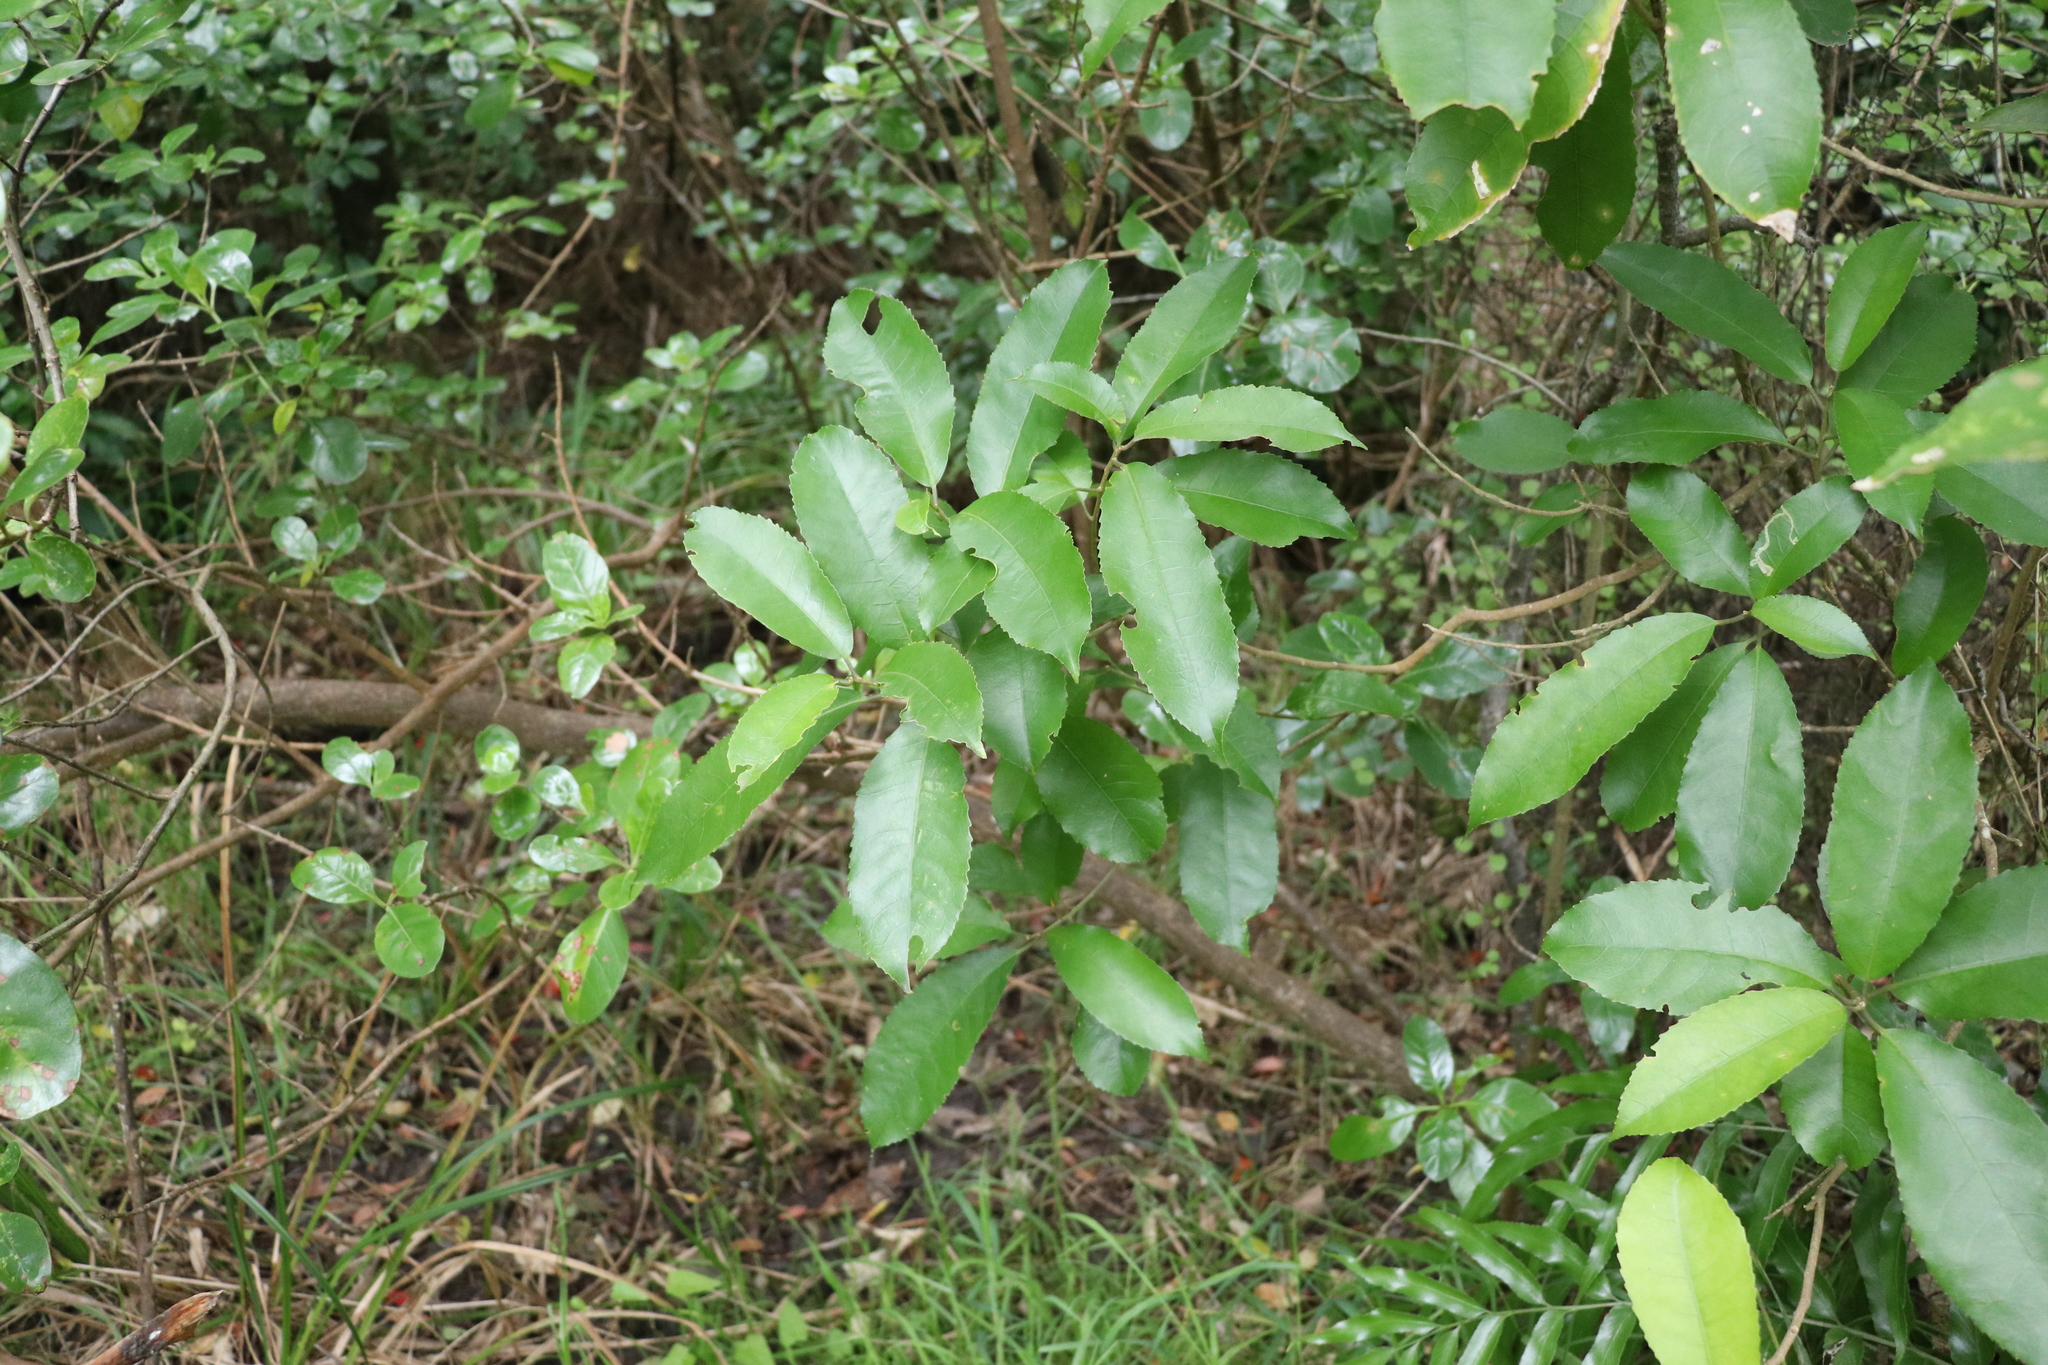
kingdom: Plantae
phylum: Tracheophyta
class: Magnoliopsida
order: Malpighiales
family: Violaceae
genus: Melicytus
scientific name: Melicytus ramiflorus
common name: Mahoe
